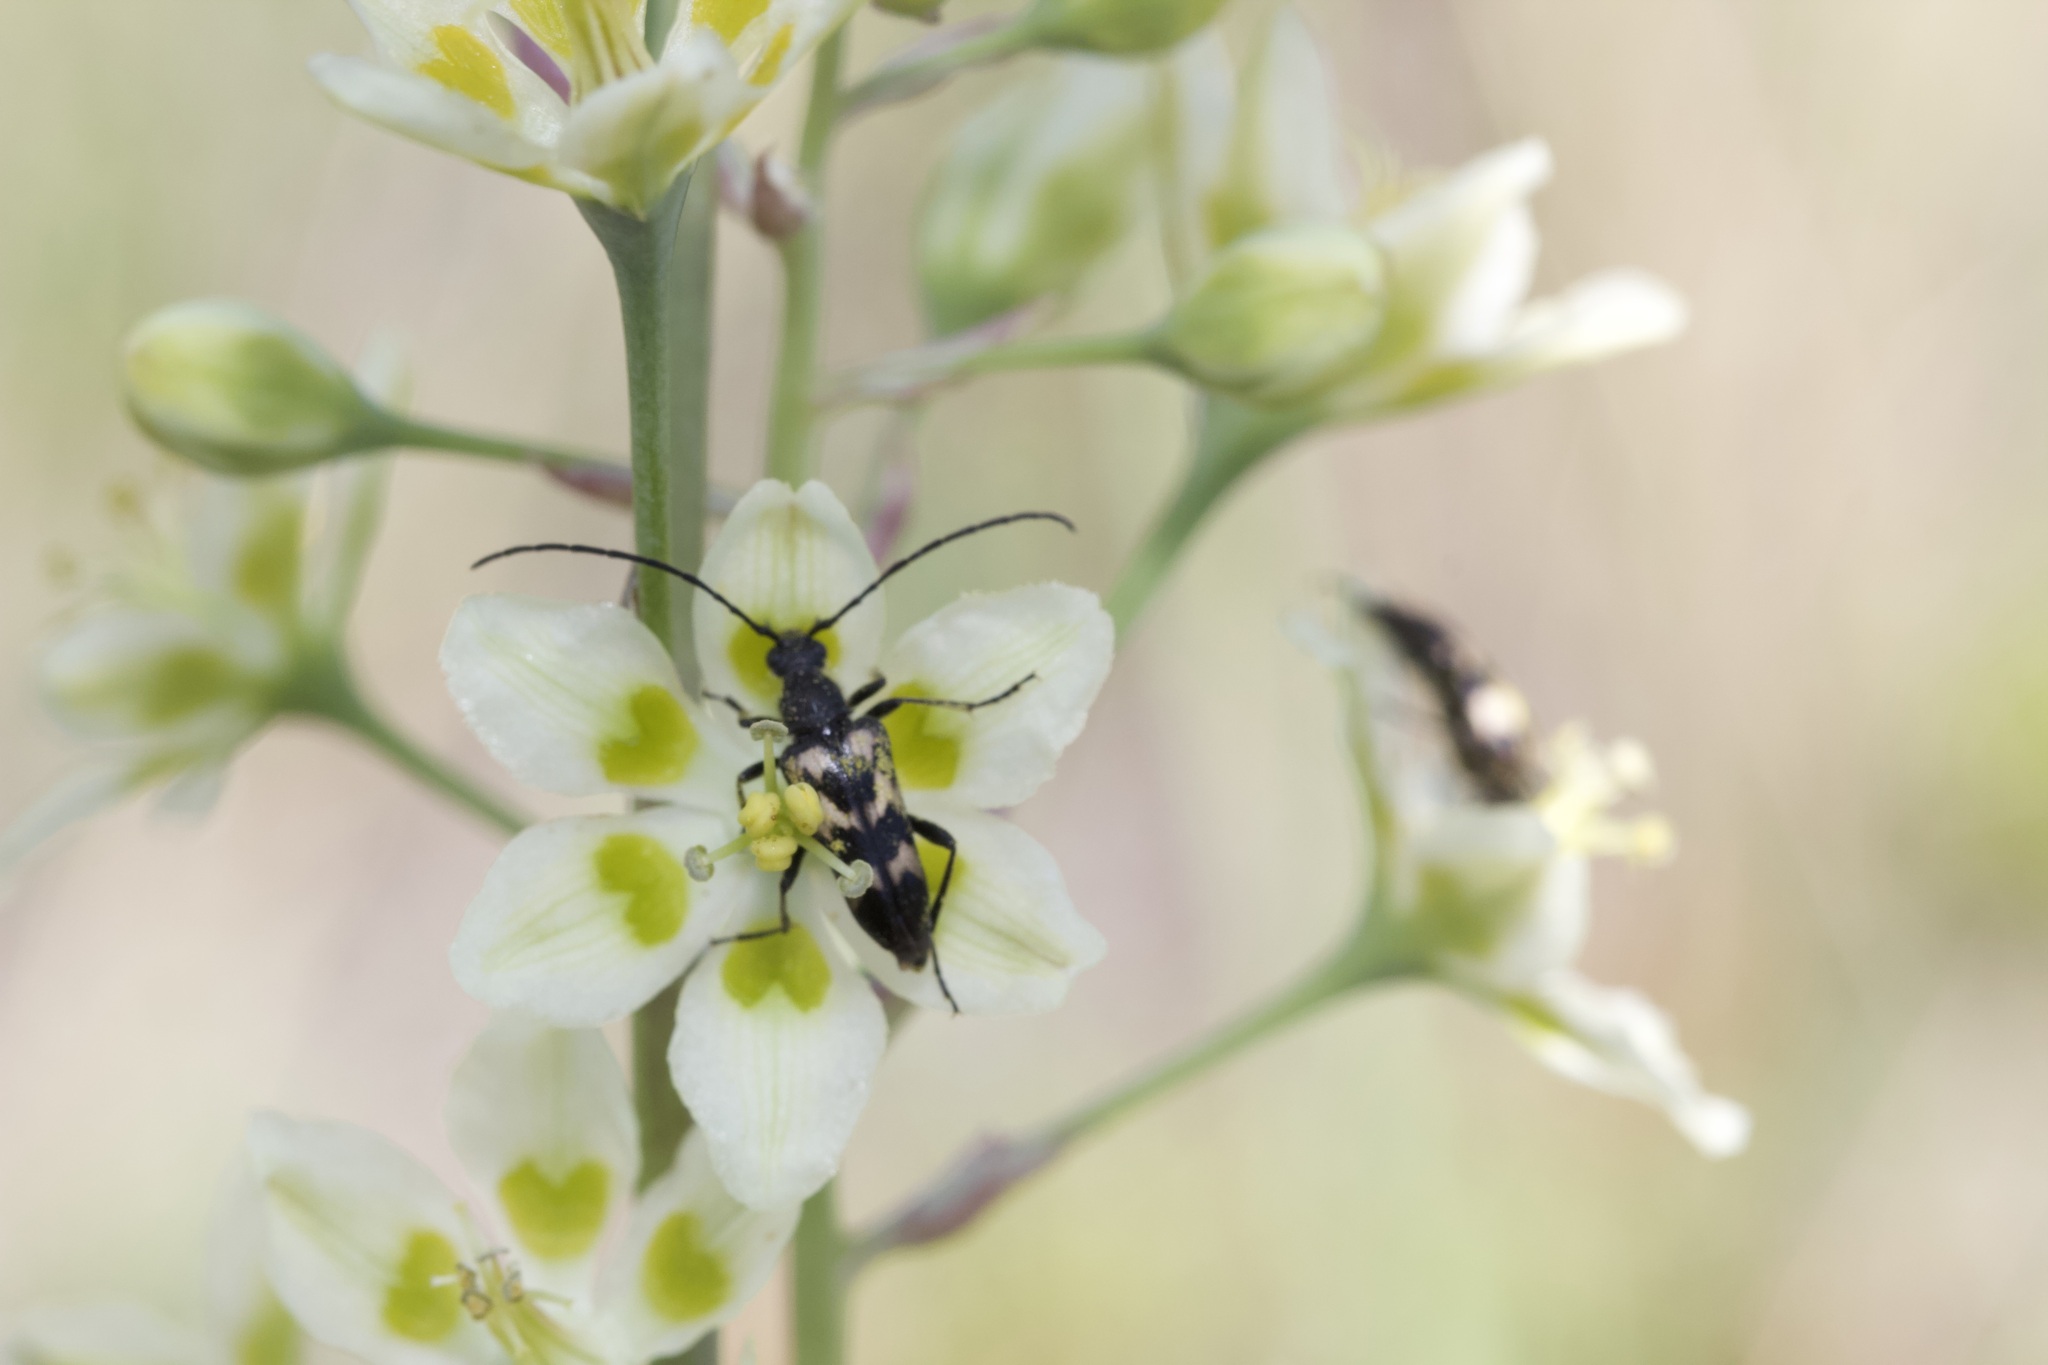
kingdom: Animalia
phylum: Arthropoda
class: Insecta
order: Coleoptera
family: Cerambycidae
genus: Judolia
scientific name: Judolia montivagans
